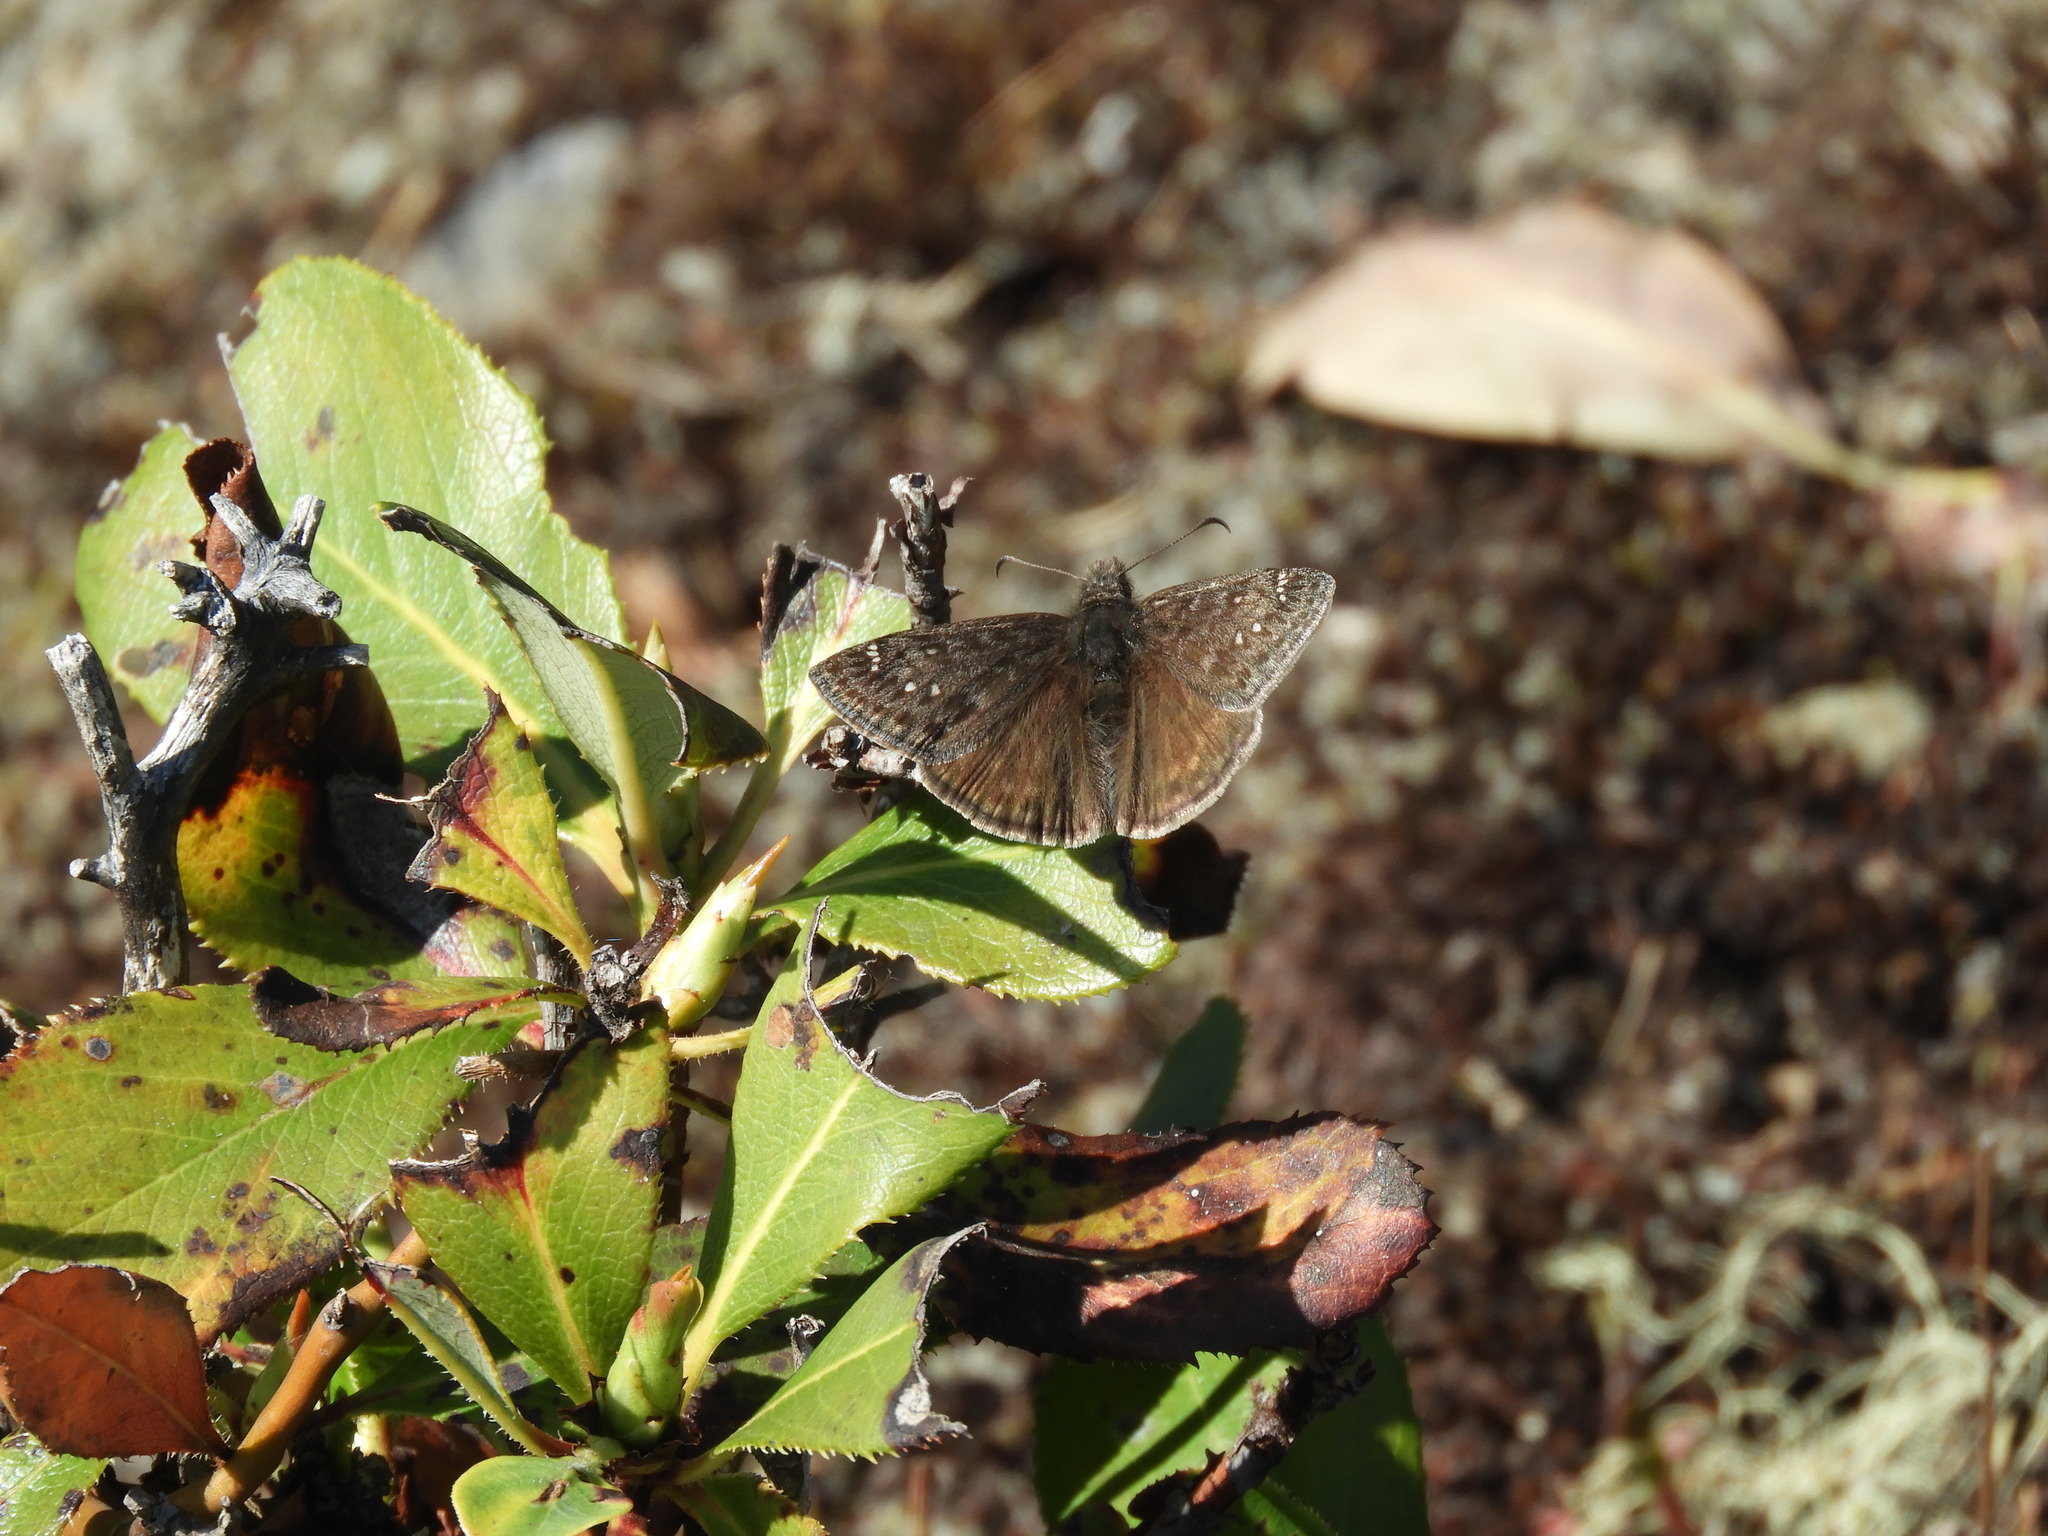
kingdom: Animalia
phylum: Arthropoda
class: Insecta
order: Lepidoptera
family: Hesperiidae
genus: Erynnis
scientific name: Erynnis propertius
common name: Propertius duskywing
